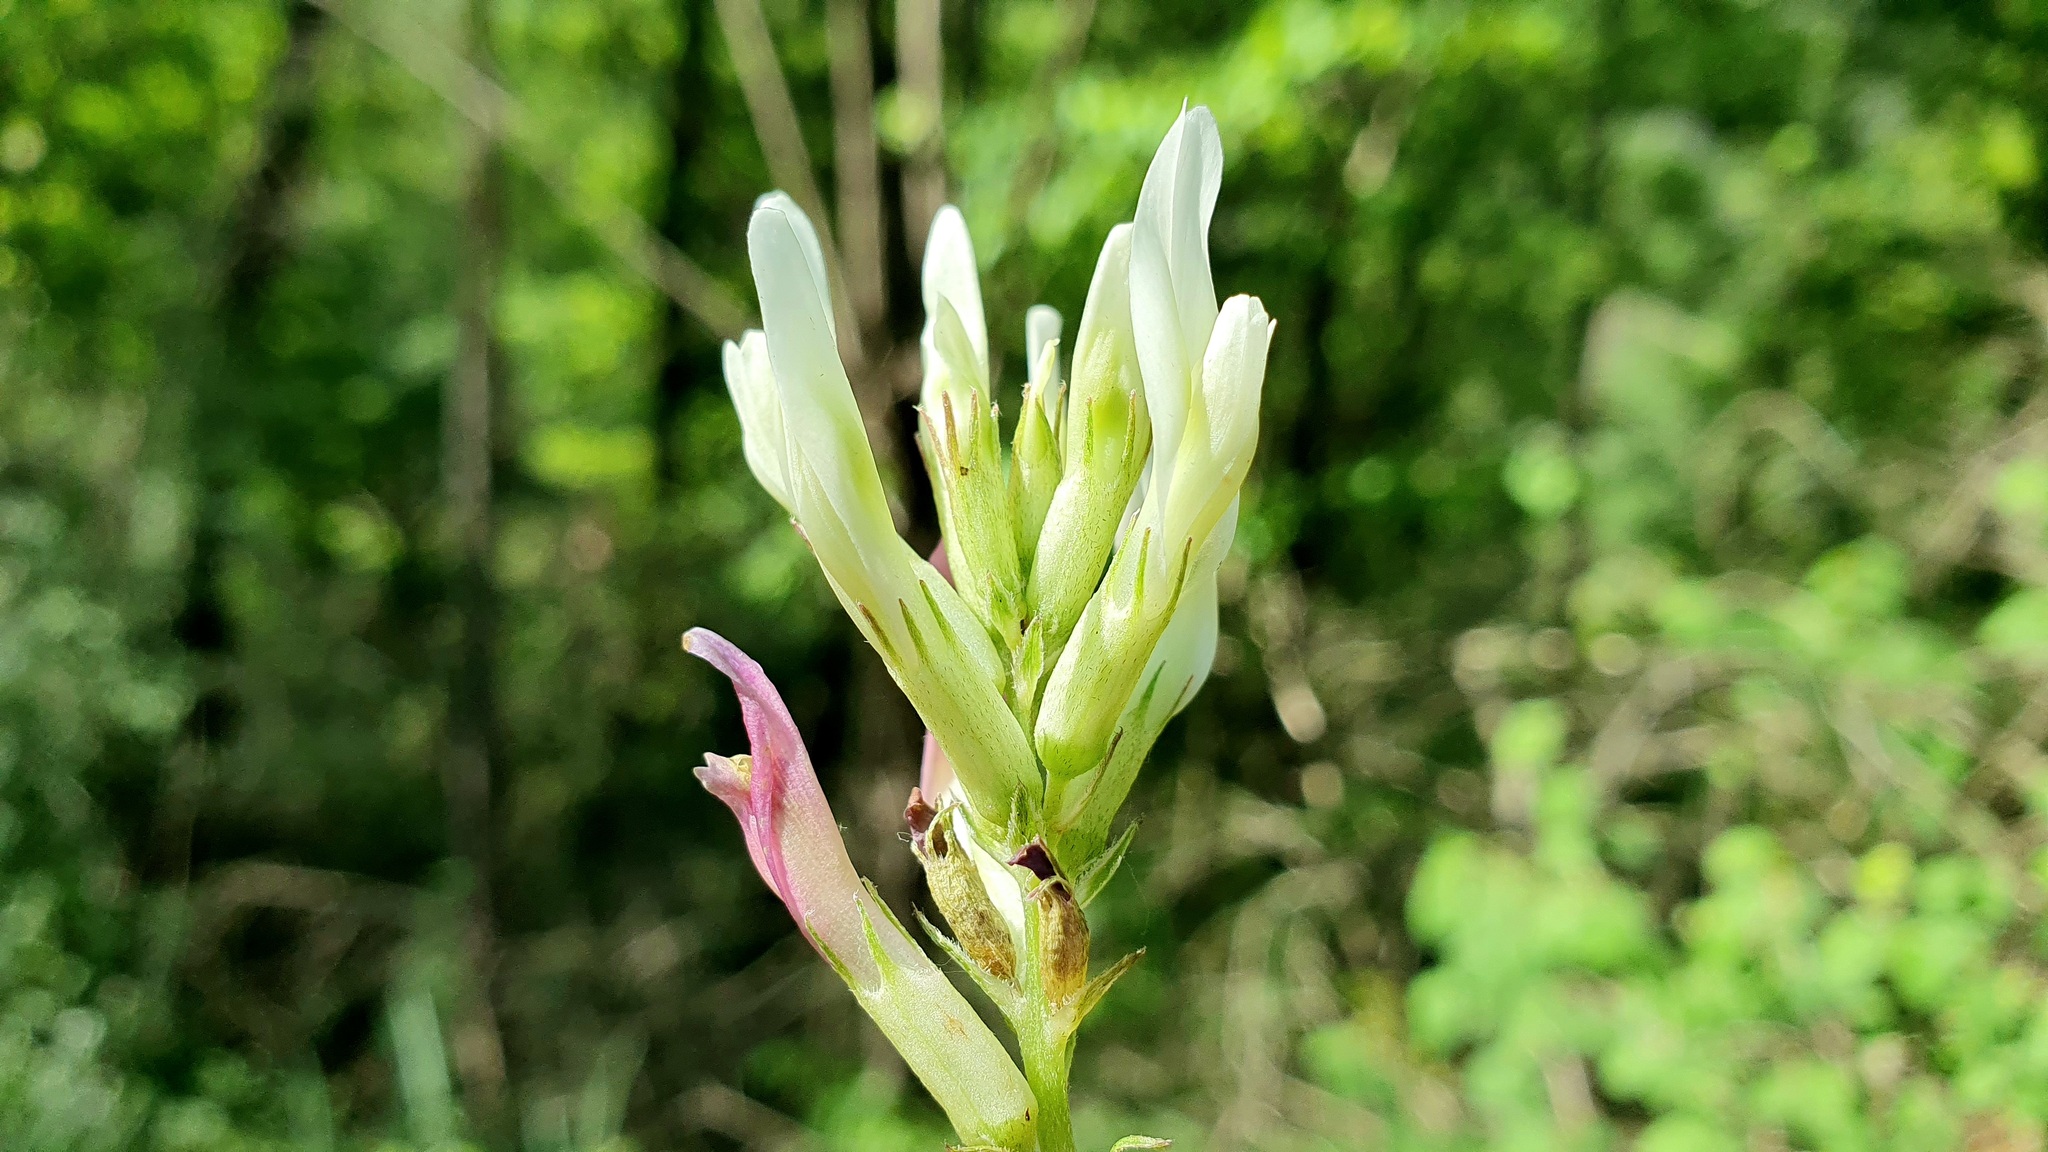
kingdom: Plantae
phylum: Tracheophyta
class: Magnoliopsida
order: Fabales
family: Fabaceae
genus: Astragalus
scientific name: Astragalus monspessulanus
